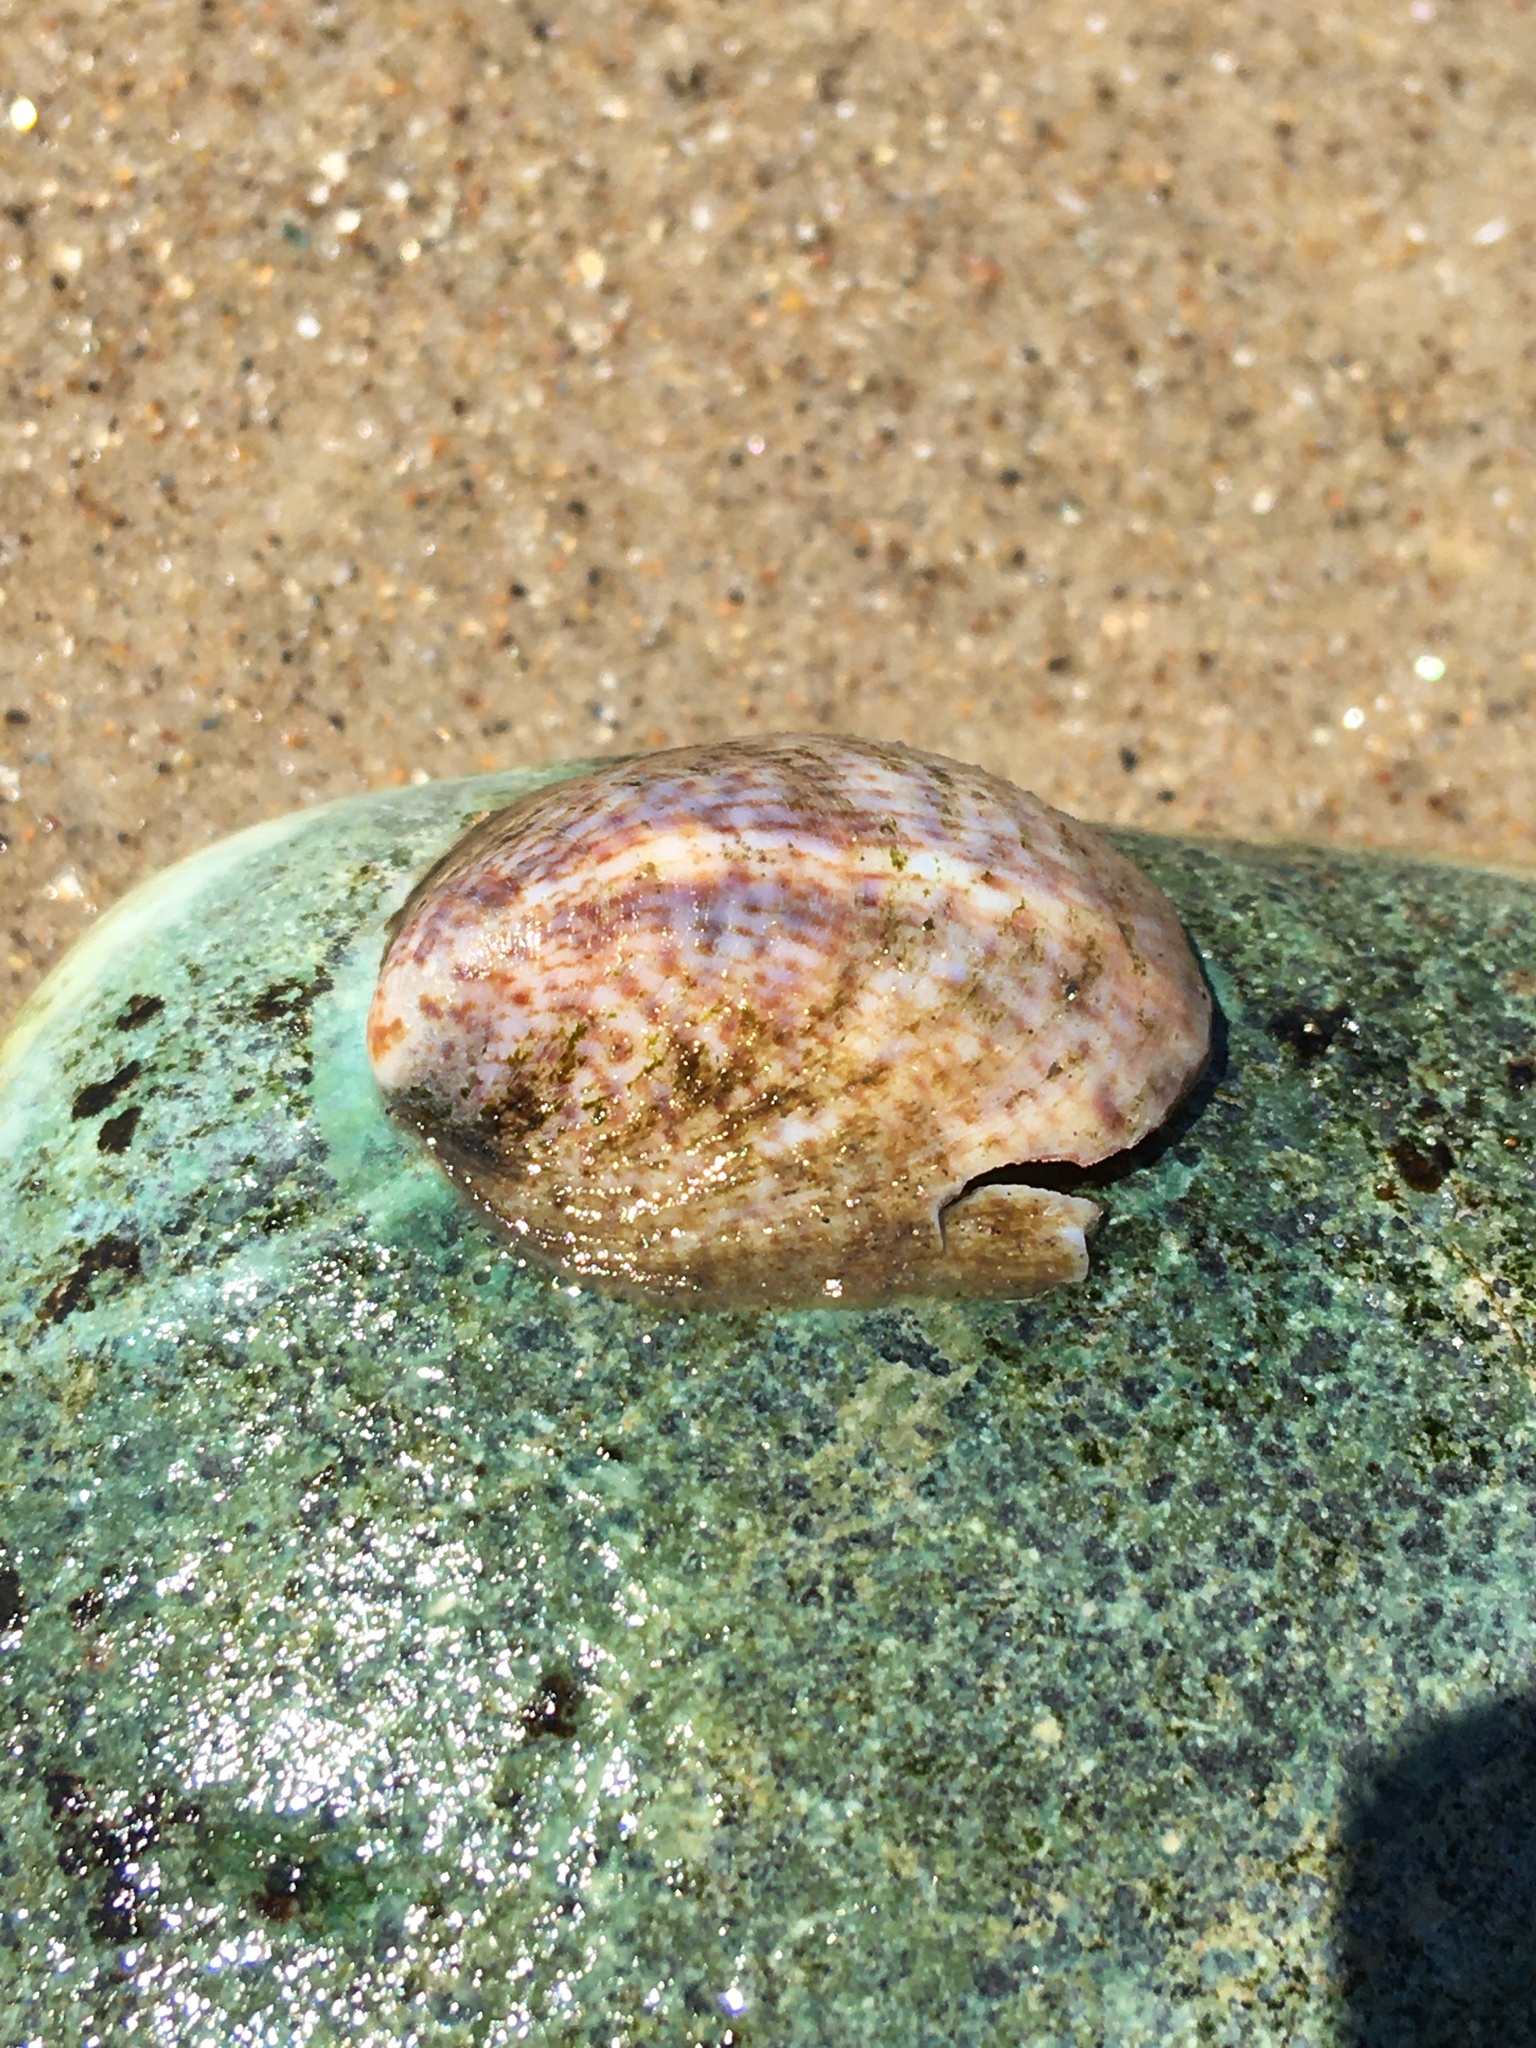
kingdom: Animalia
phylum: Mollusca
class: Gastropoda
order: Littorinimorpha
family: Calyptraeidae
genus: Crepidula
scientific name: Crepidula fornicata
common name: Slipper limpet
